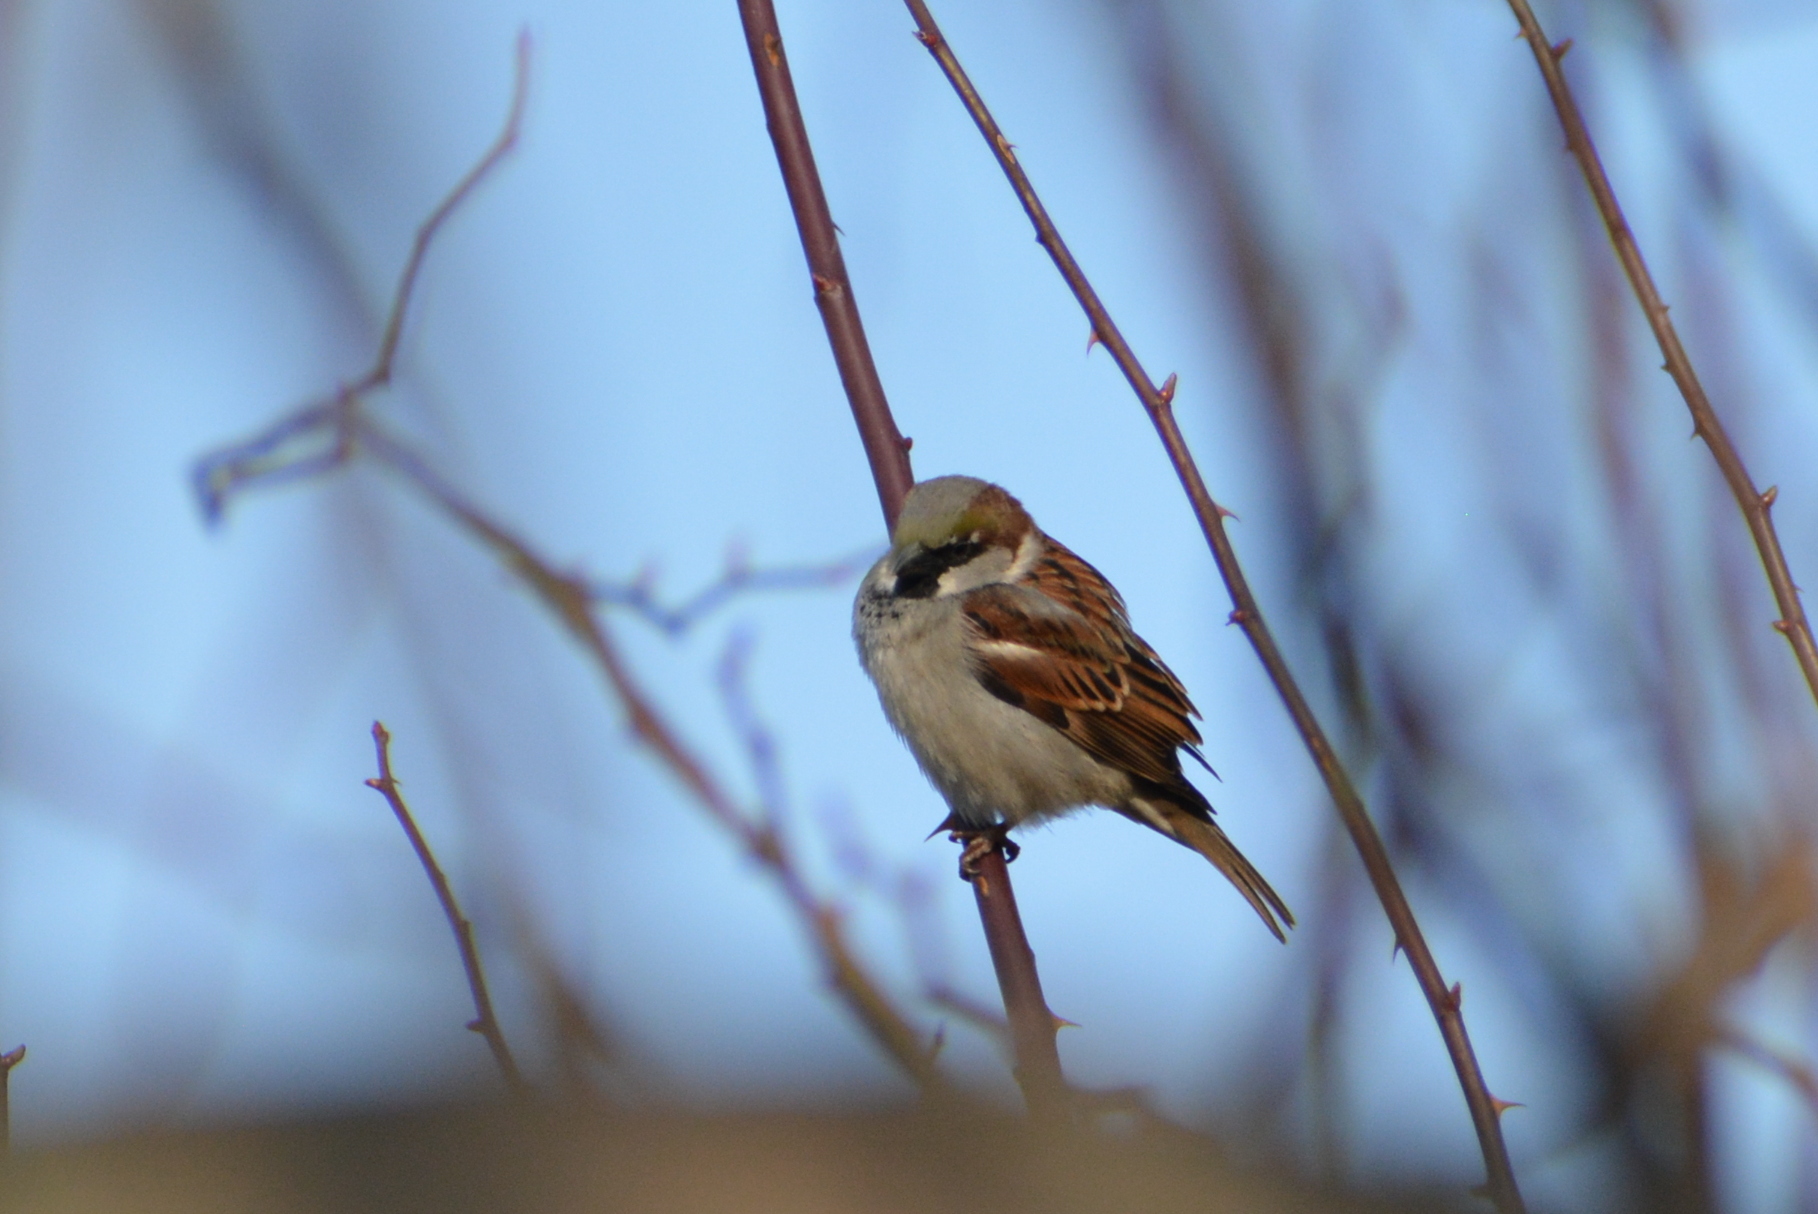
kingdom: Animalia
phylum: Chordata
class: Aves
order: Passeriformes
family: Passeridae
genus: Passer
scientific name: Passer domesticus
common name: House sparrow
